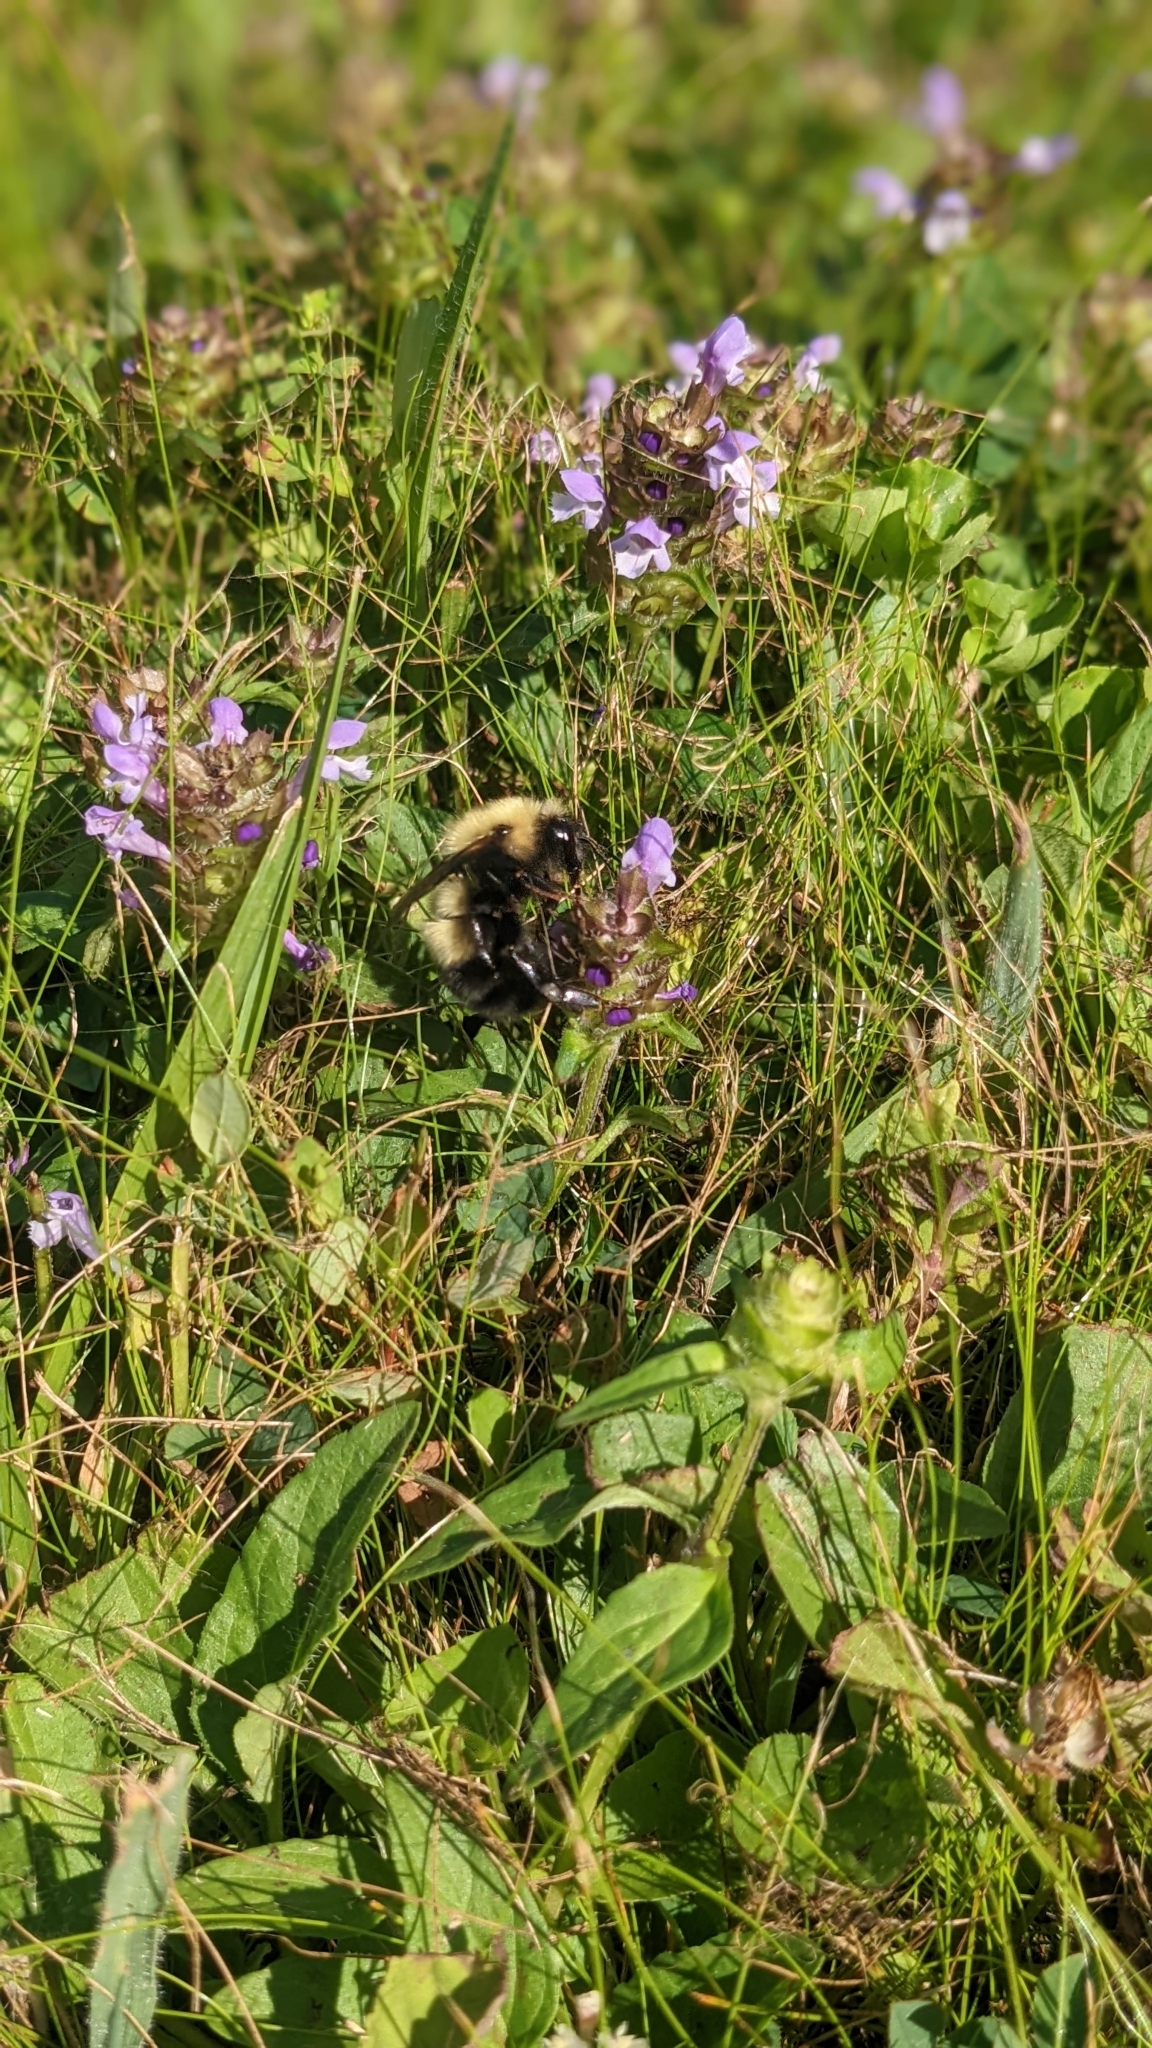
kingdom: Animalia
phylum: Arthropoda
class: Insecta
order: Hymenoptera
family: Apidae
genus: Bombus
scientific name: Bombus perplexus
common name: Confusing bumble bee
